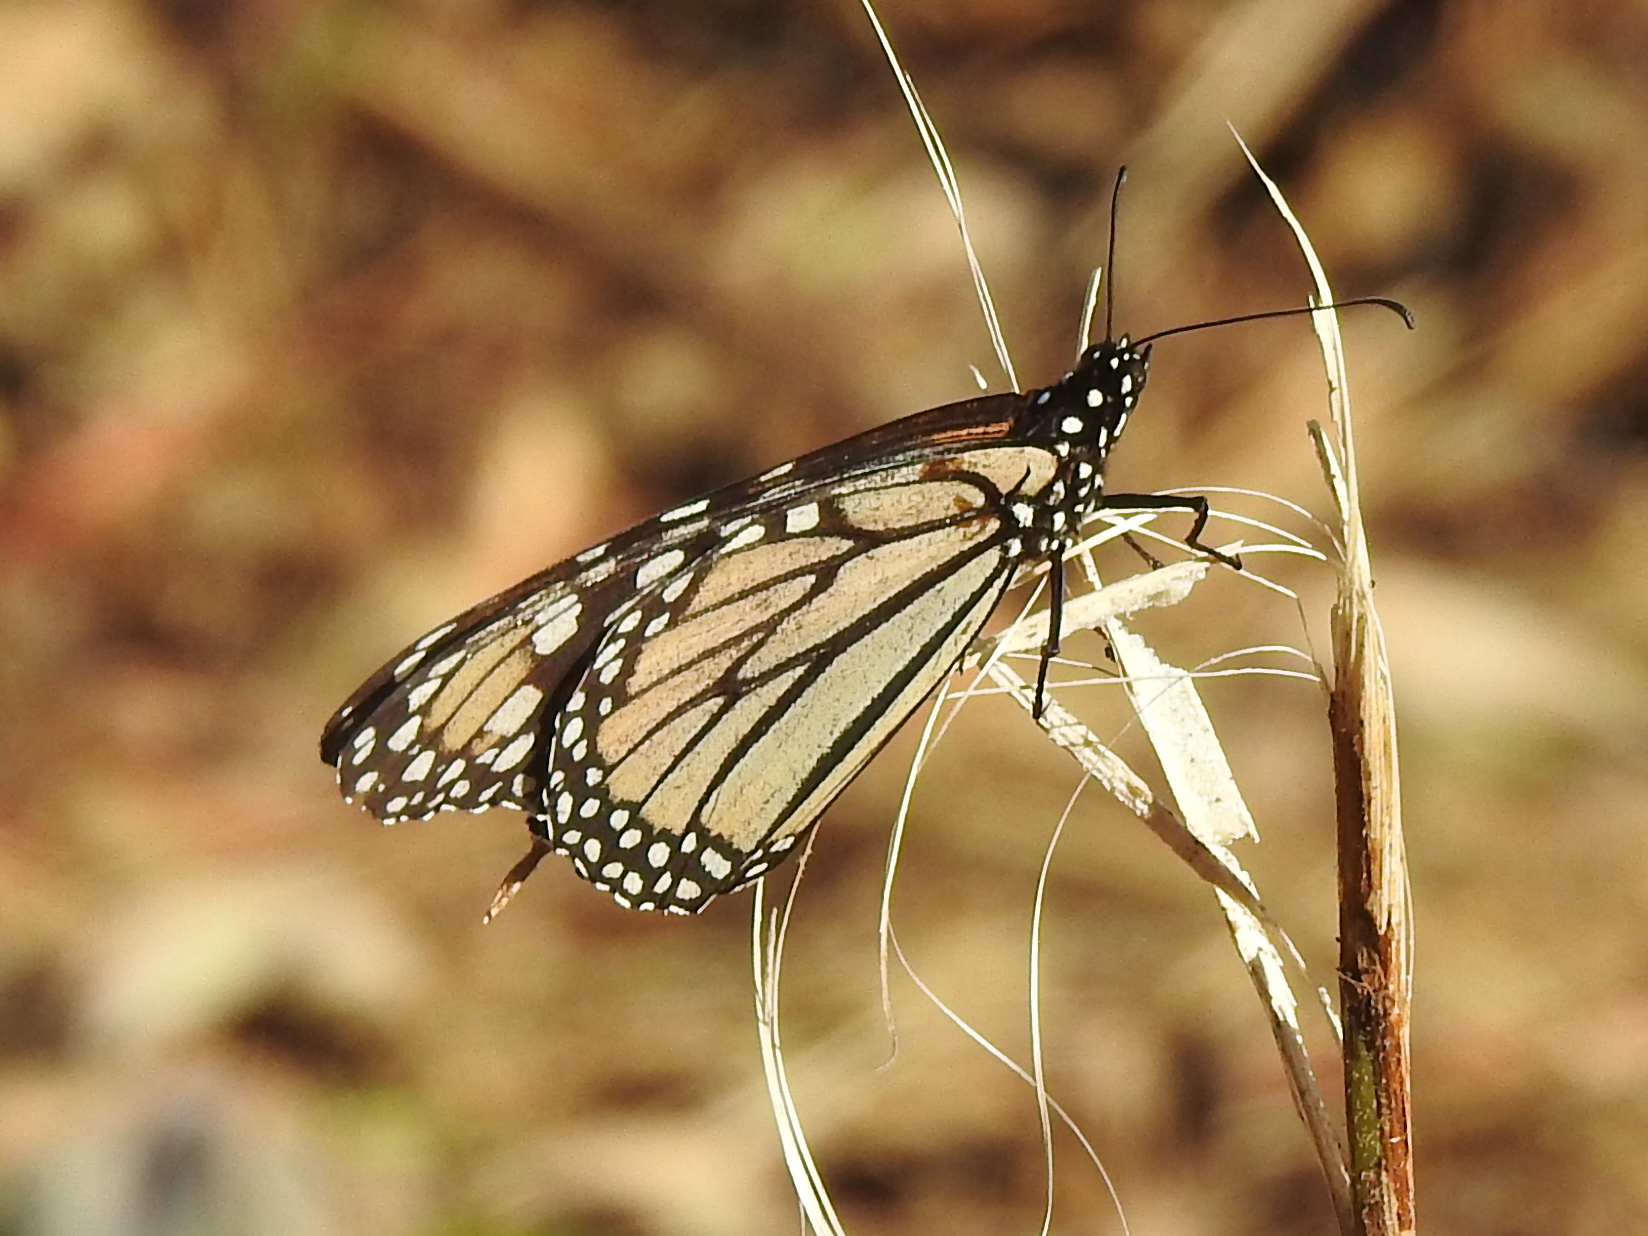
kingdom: Animalia
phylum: Arthropoda
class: Insecta
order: Lepidoptera
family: Nymphalidae
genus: Danaus
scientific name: Danaus plexippus
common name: Monarch
